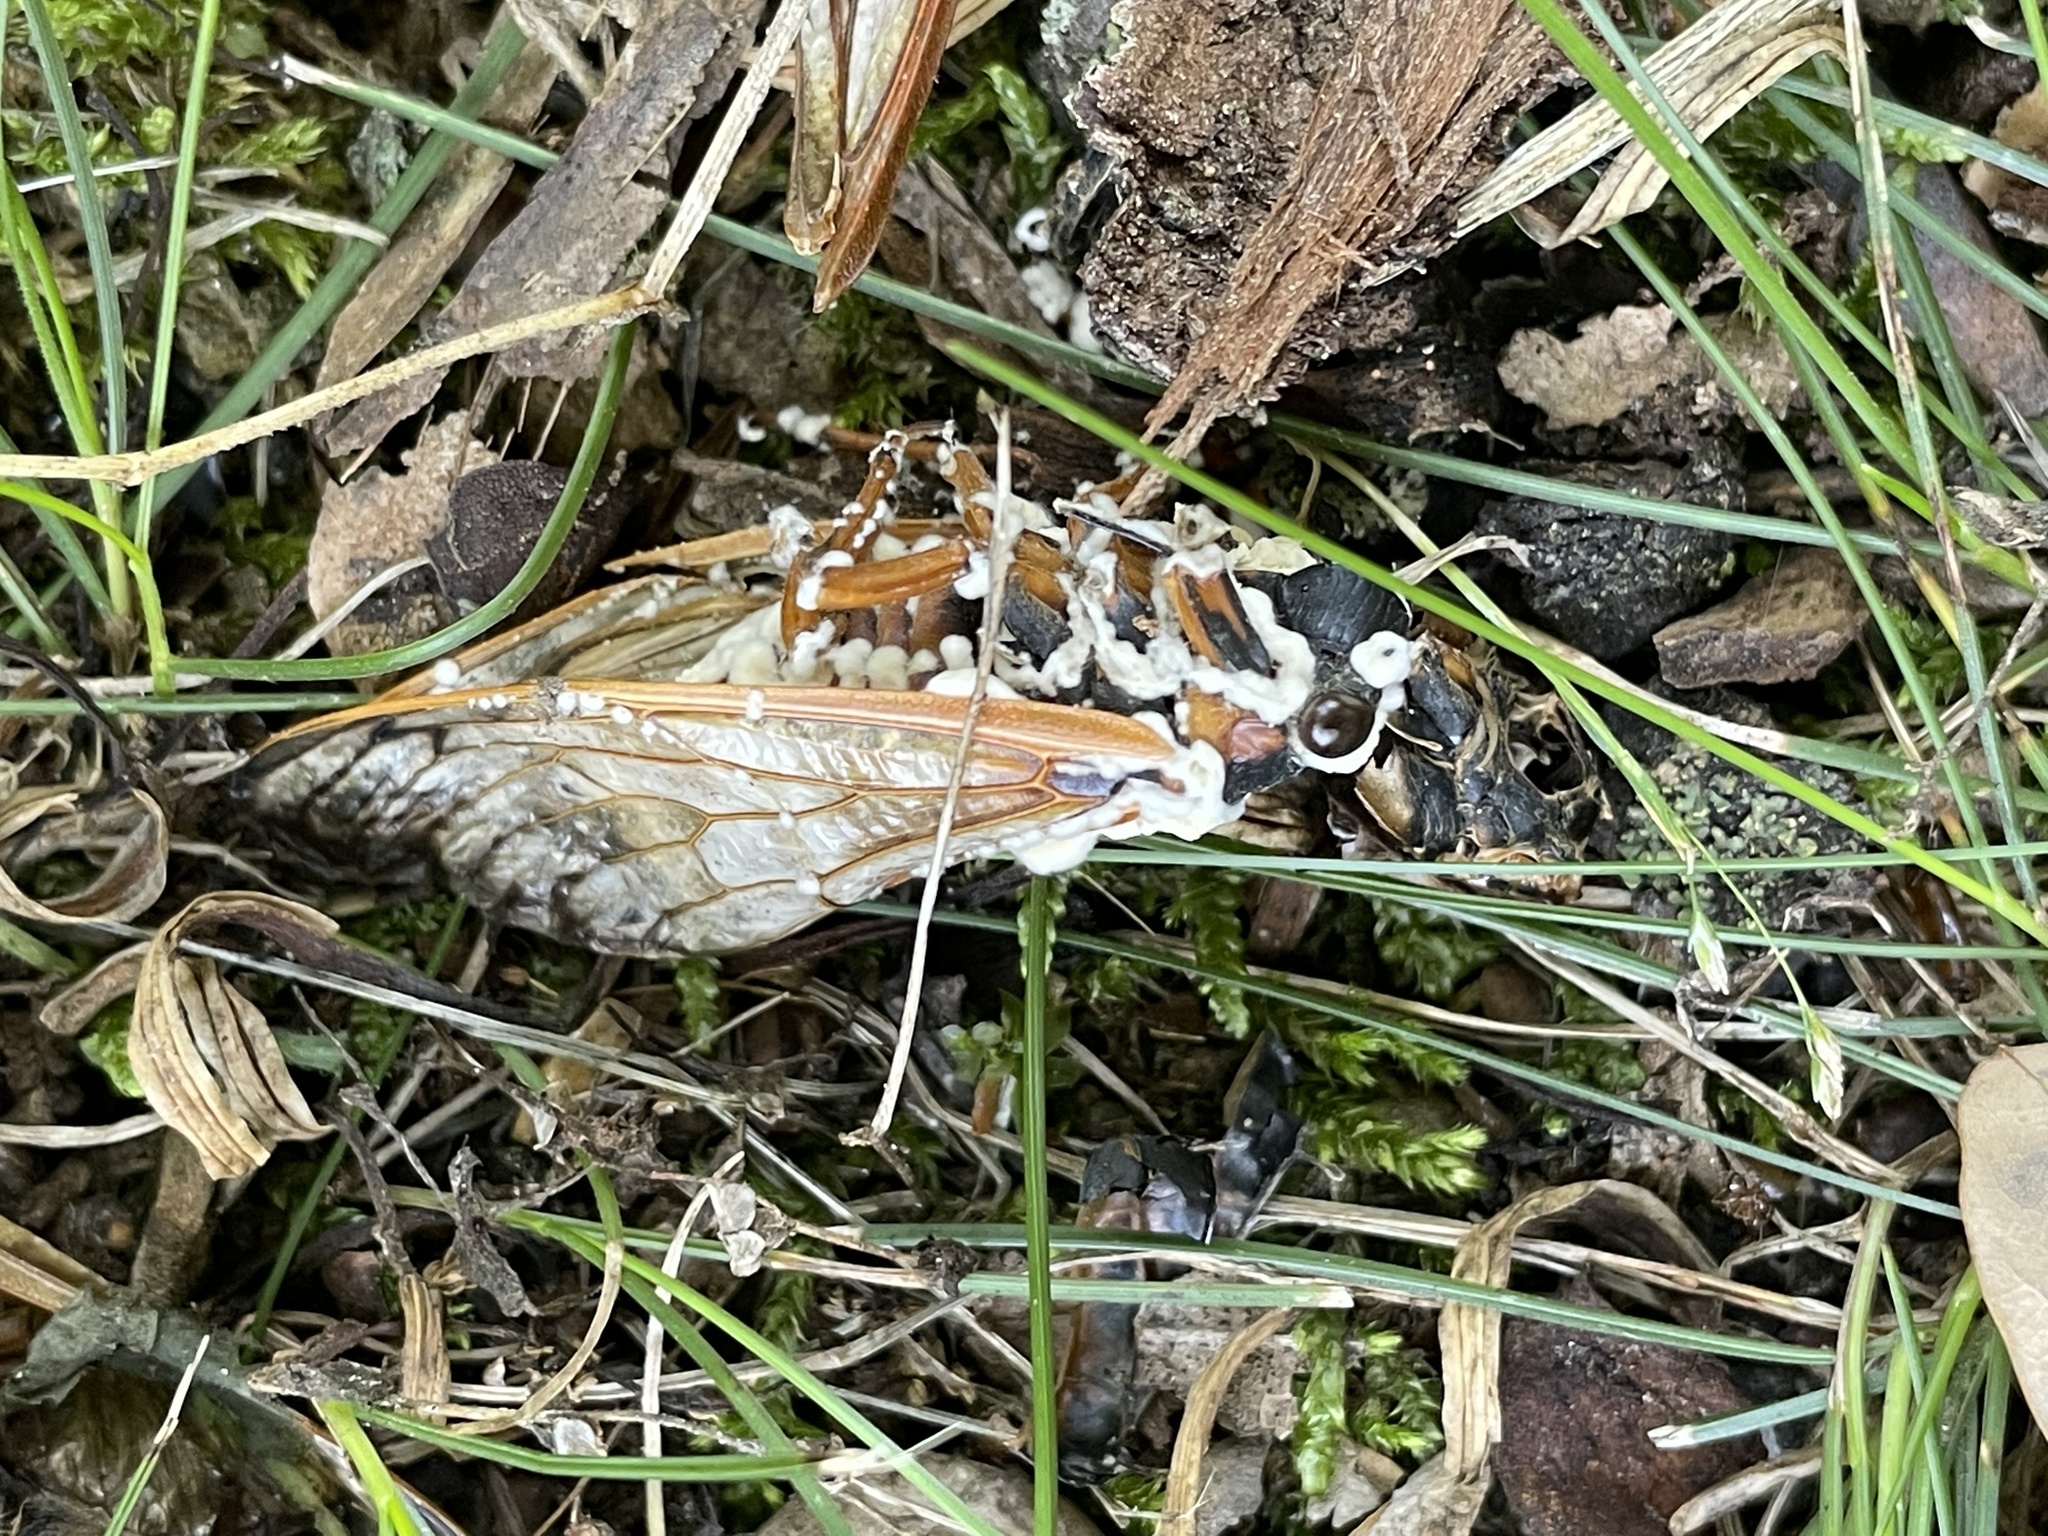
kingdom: Fungi
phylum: Ascomycota
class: Sordariomycetes
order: Hypocreales
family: Cordycipitaceae
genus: Beauveria
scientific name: Beauveria bassiana
